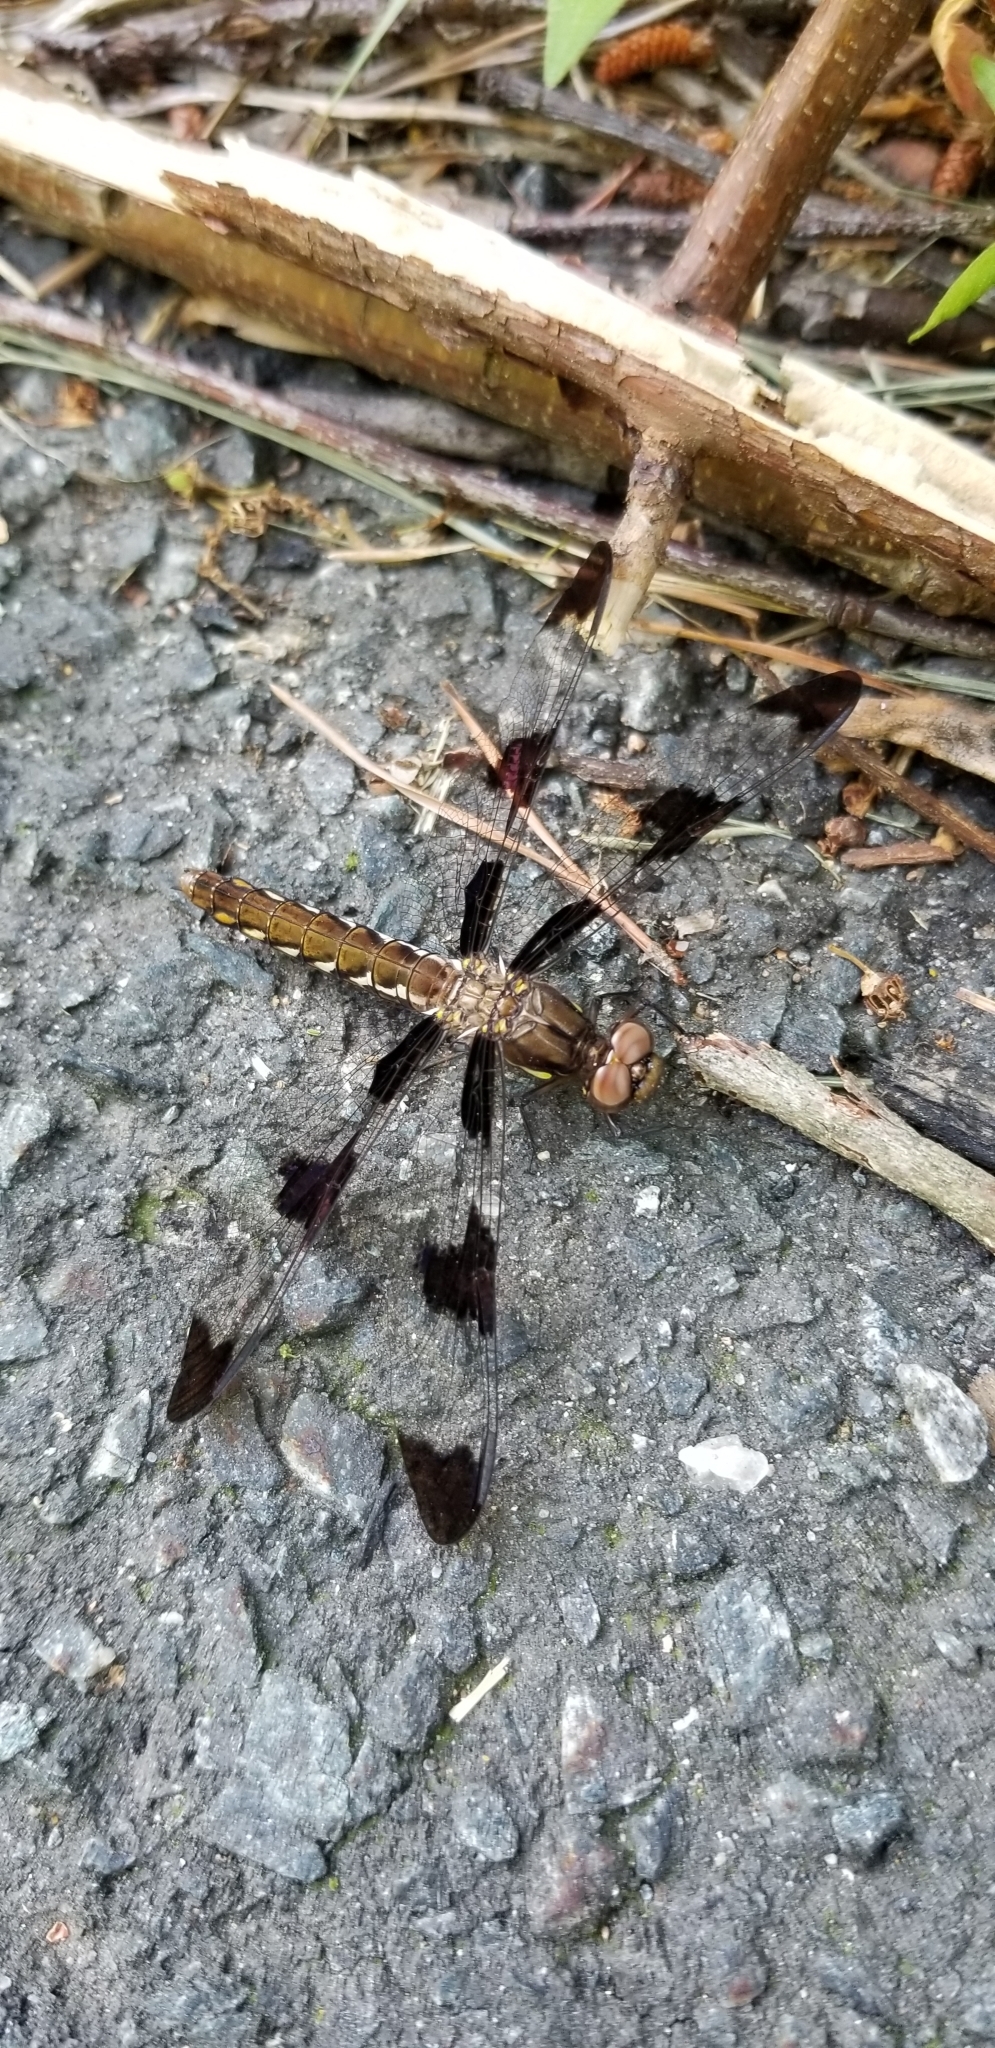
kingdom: Animalia
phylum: Arthropoda
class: Insecta
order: Odonata
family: Libellulidae
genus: Plathemis
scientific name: Plathemis lydia
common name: Common whitetail
